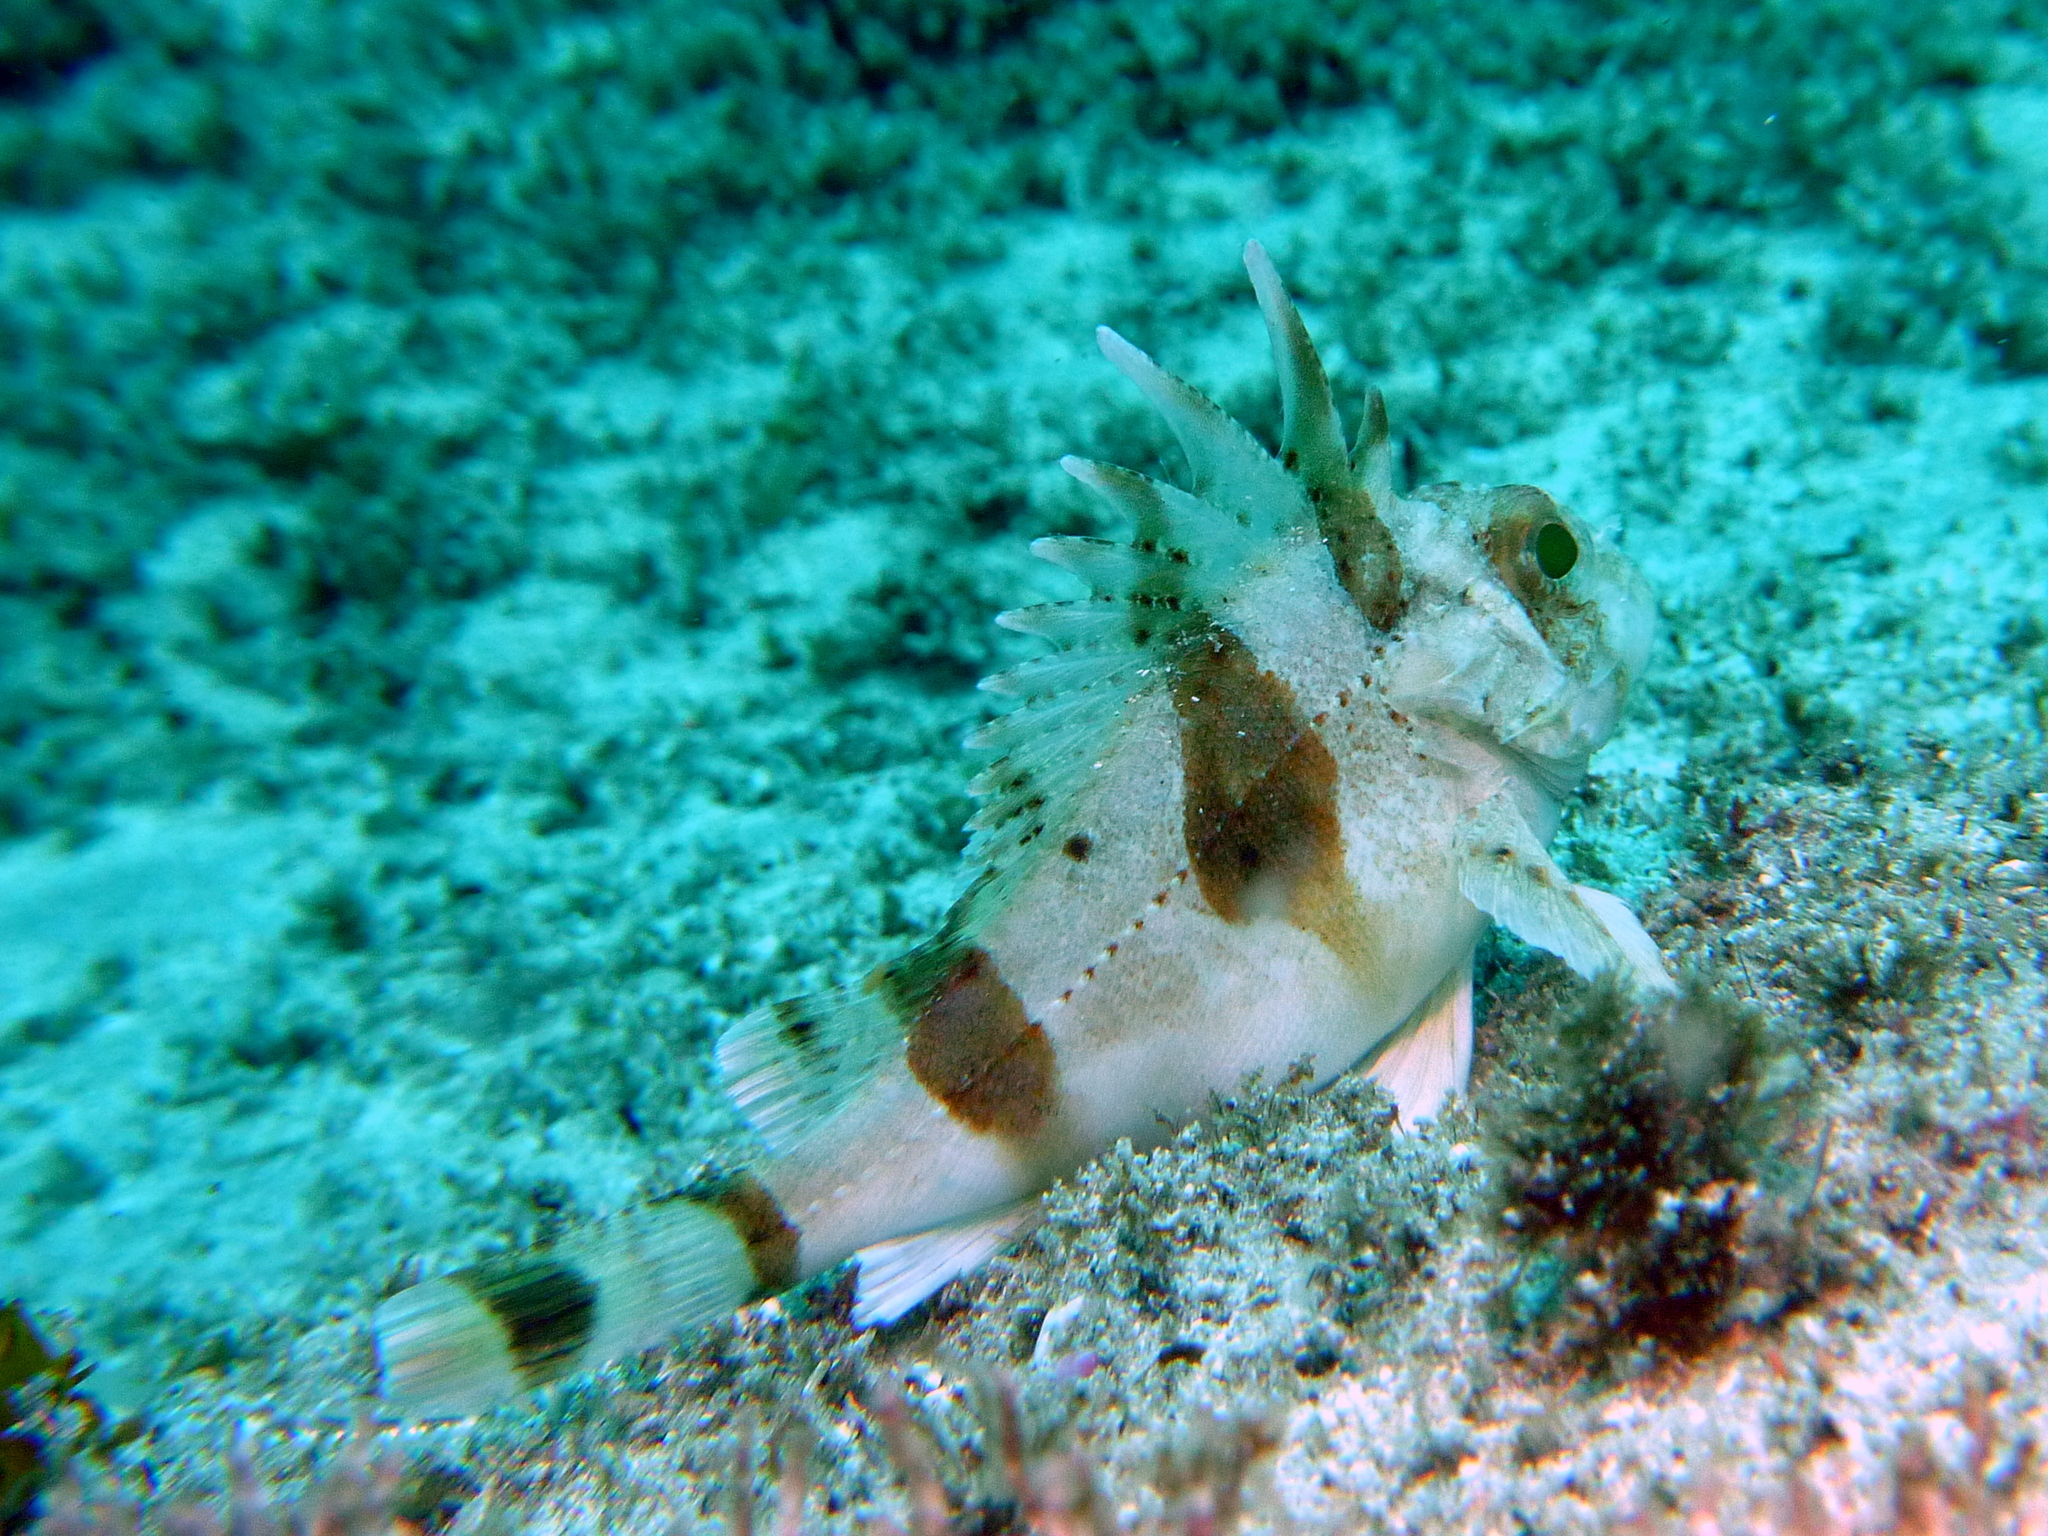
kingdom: Animalia
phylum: Chordata
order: Scorpaeniformes
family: Tetrarogidae
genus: Centropogon
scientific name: Centropogon australis
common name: Fortescue
